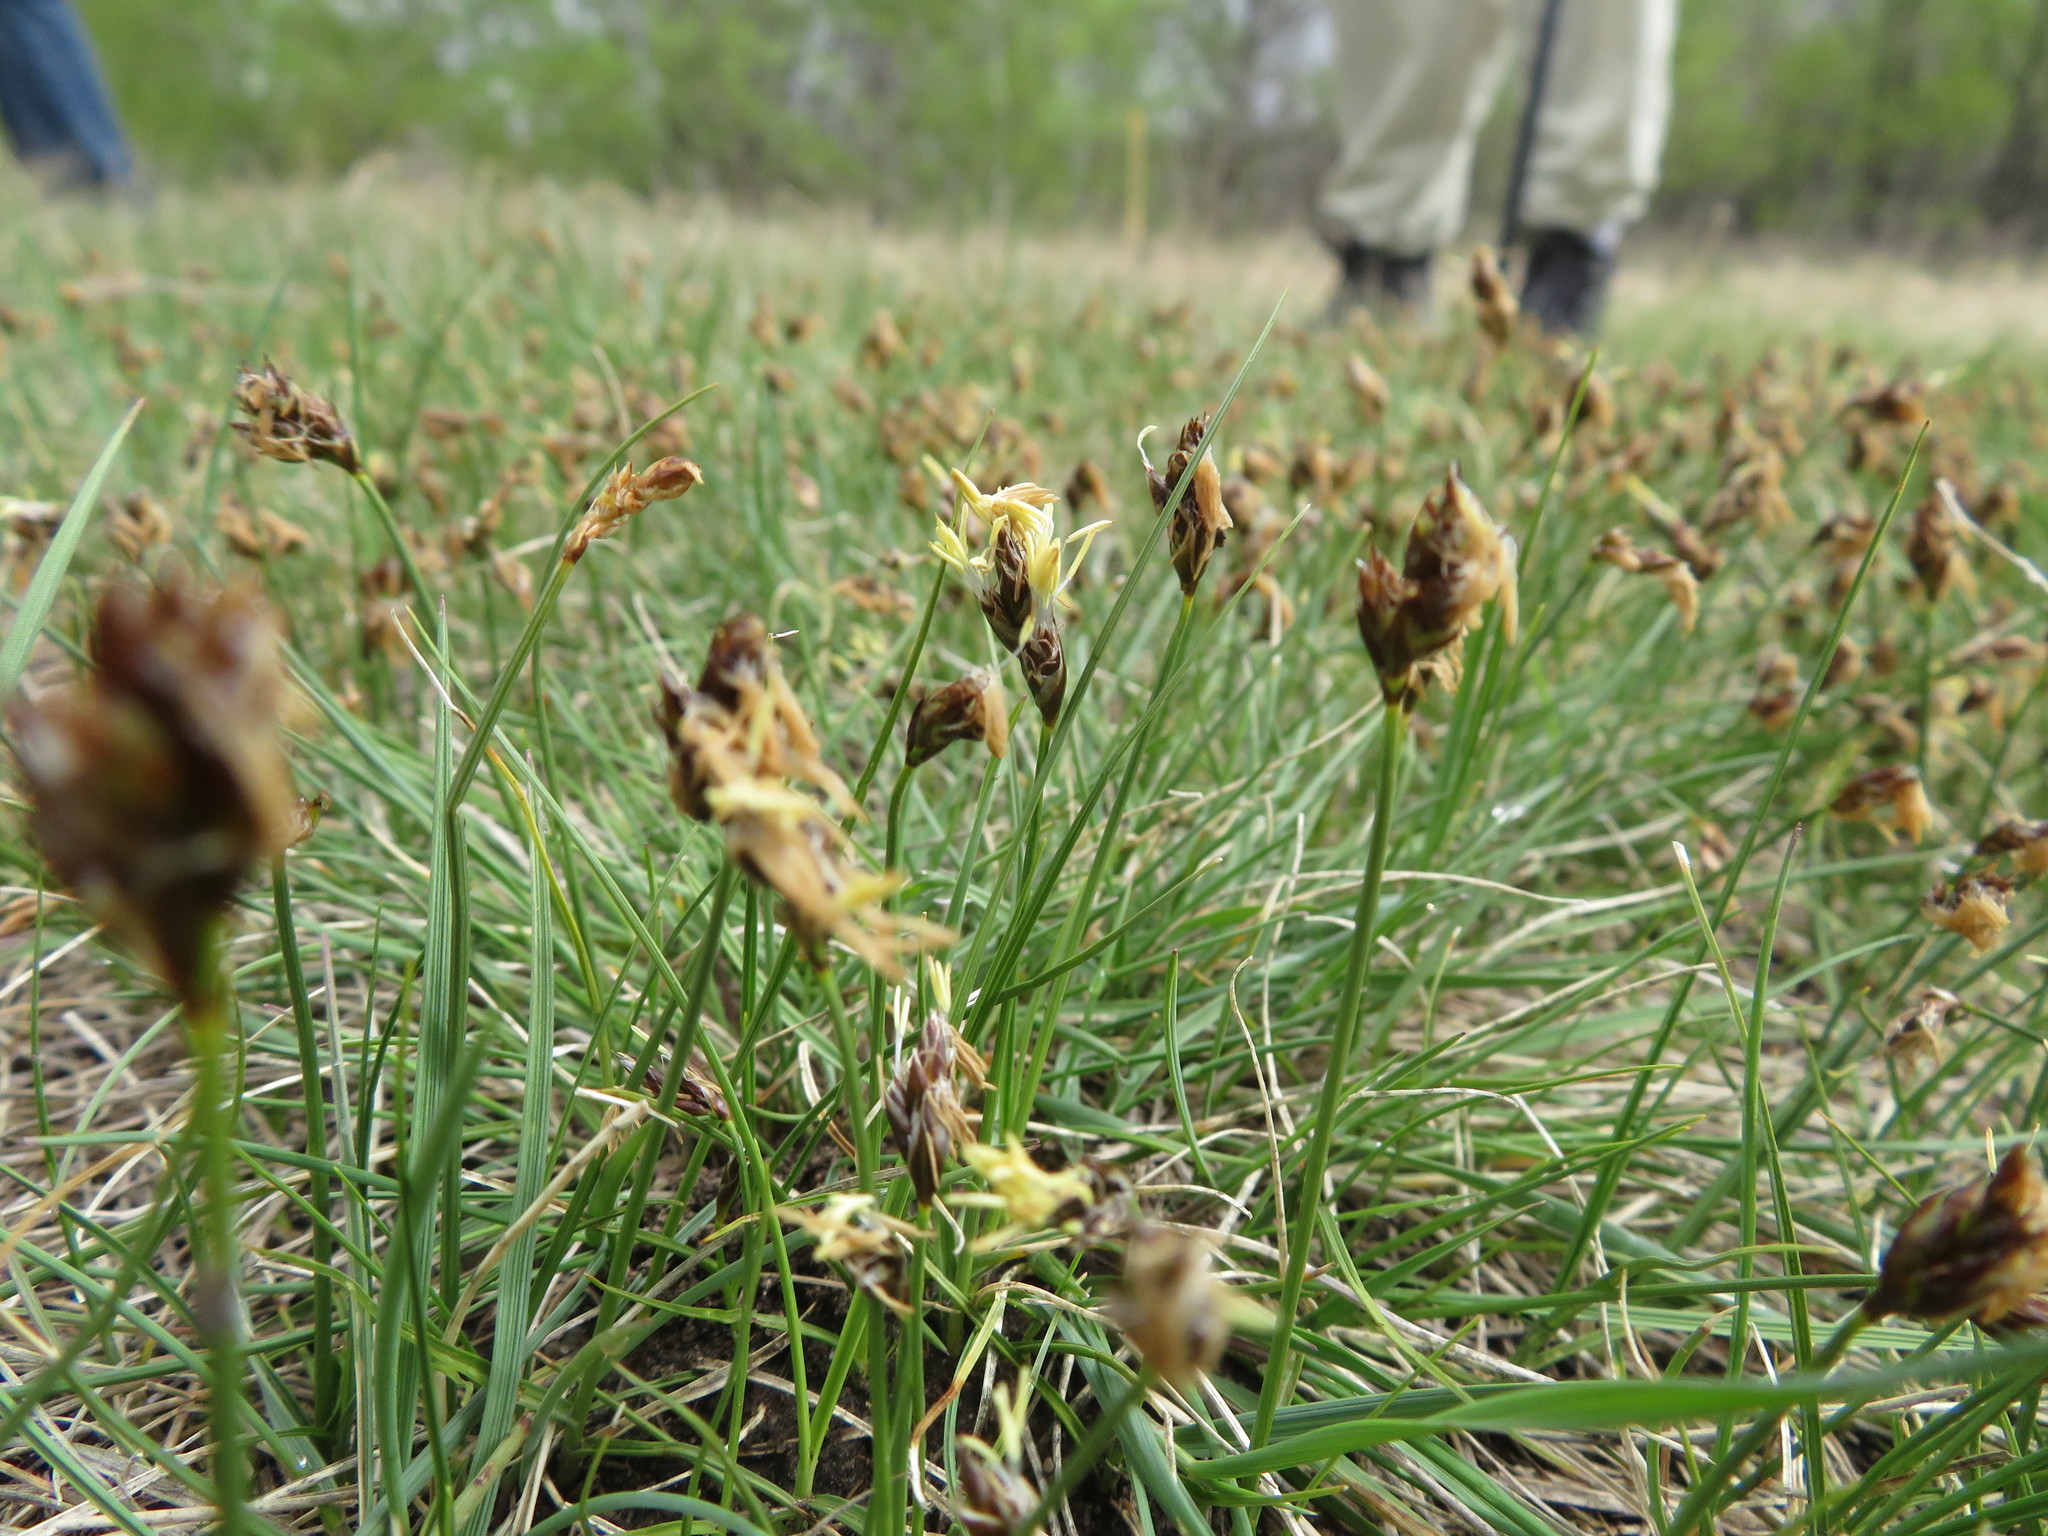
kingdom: Plantae
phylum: Tracheophyta
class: Liliopsida
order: Poales
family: Cyperaceae
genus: Carex
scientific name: Carex duriuscula
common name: Involute-leaved sedge
